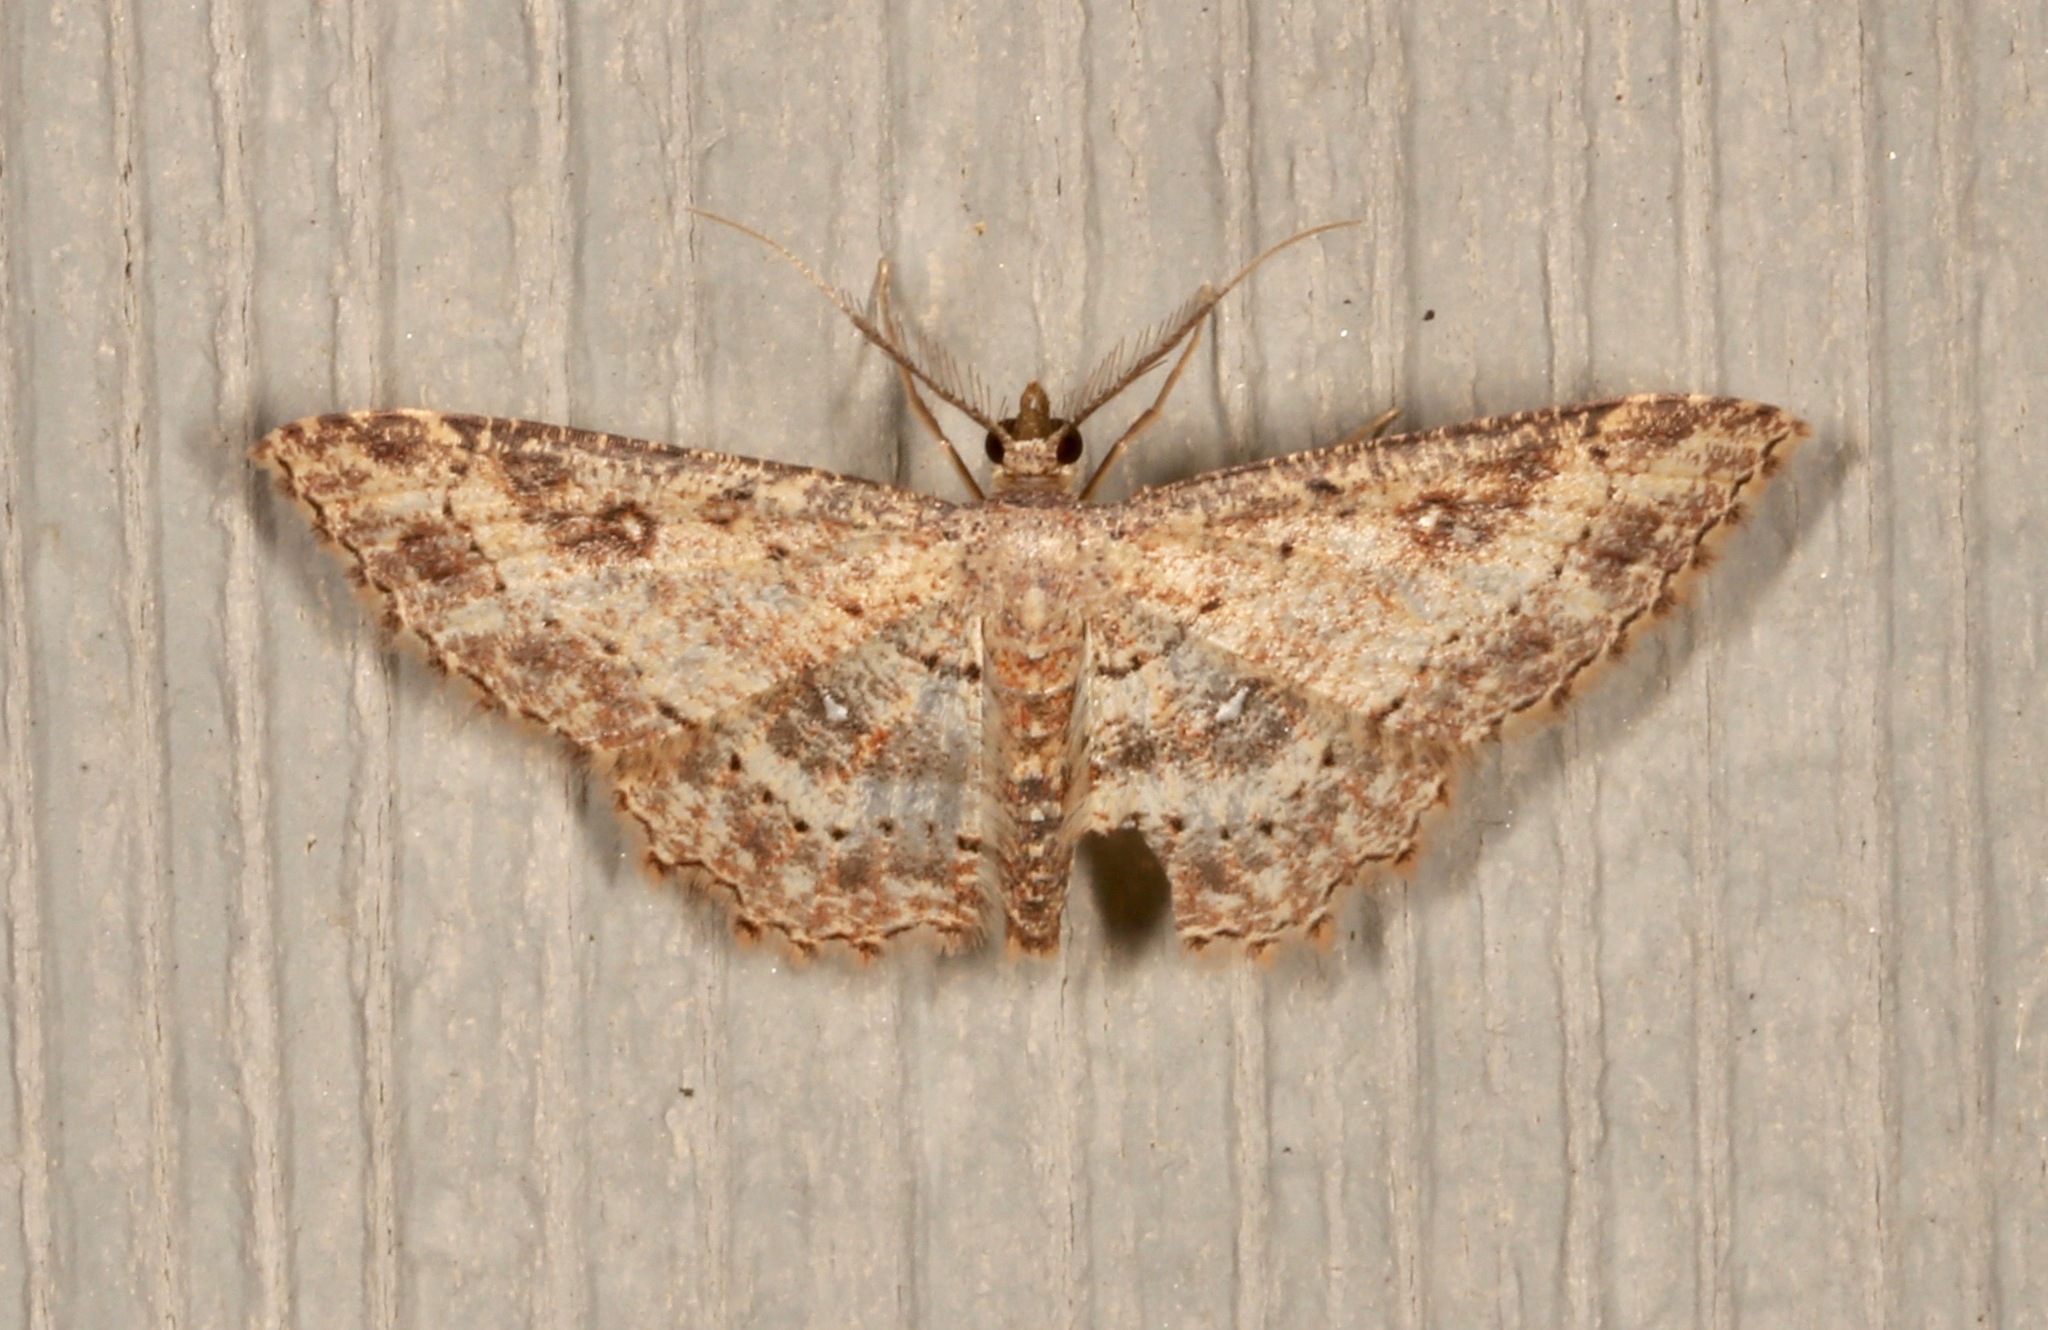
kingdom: Animalia
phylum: Arthropoda
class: Insecta
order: Lepidoptera
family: Geometridae
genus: Cyclophora
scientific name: Cyclophora nanaria
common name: Cankerworm
